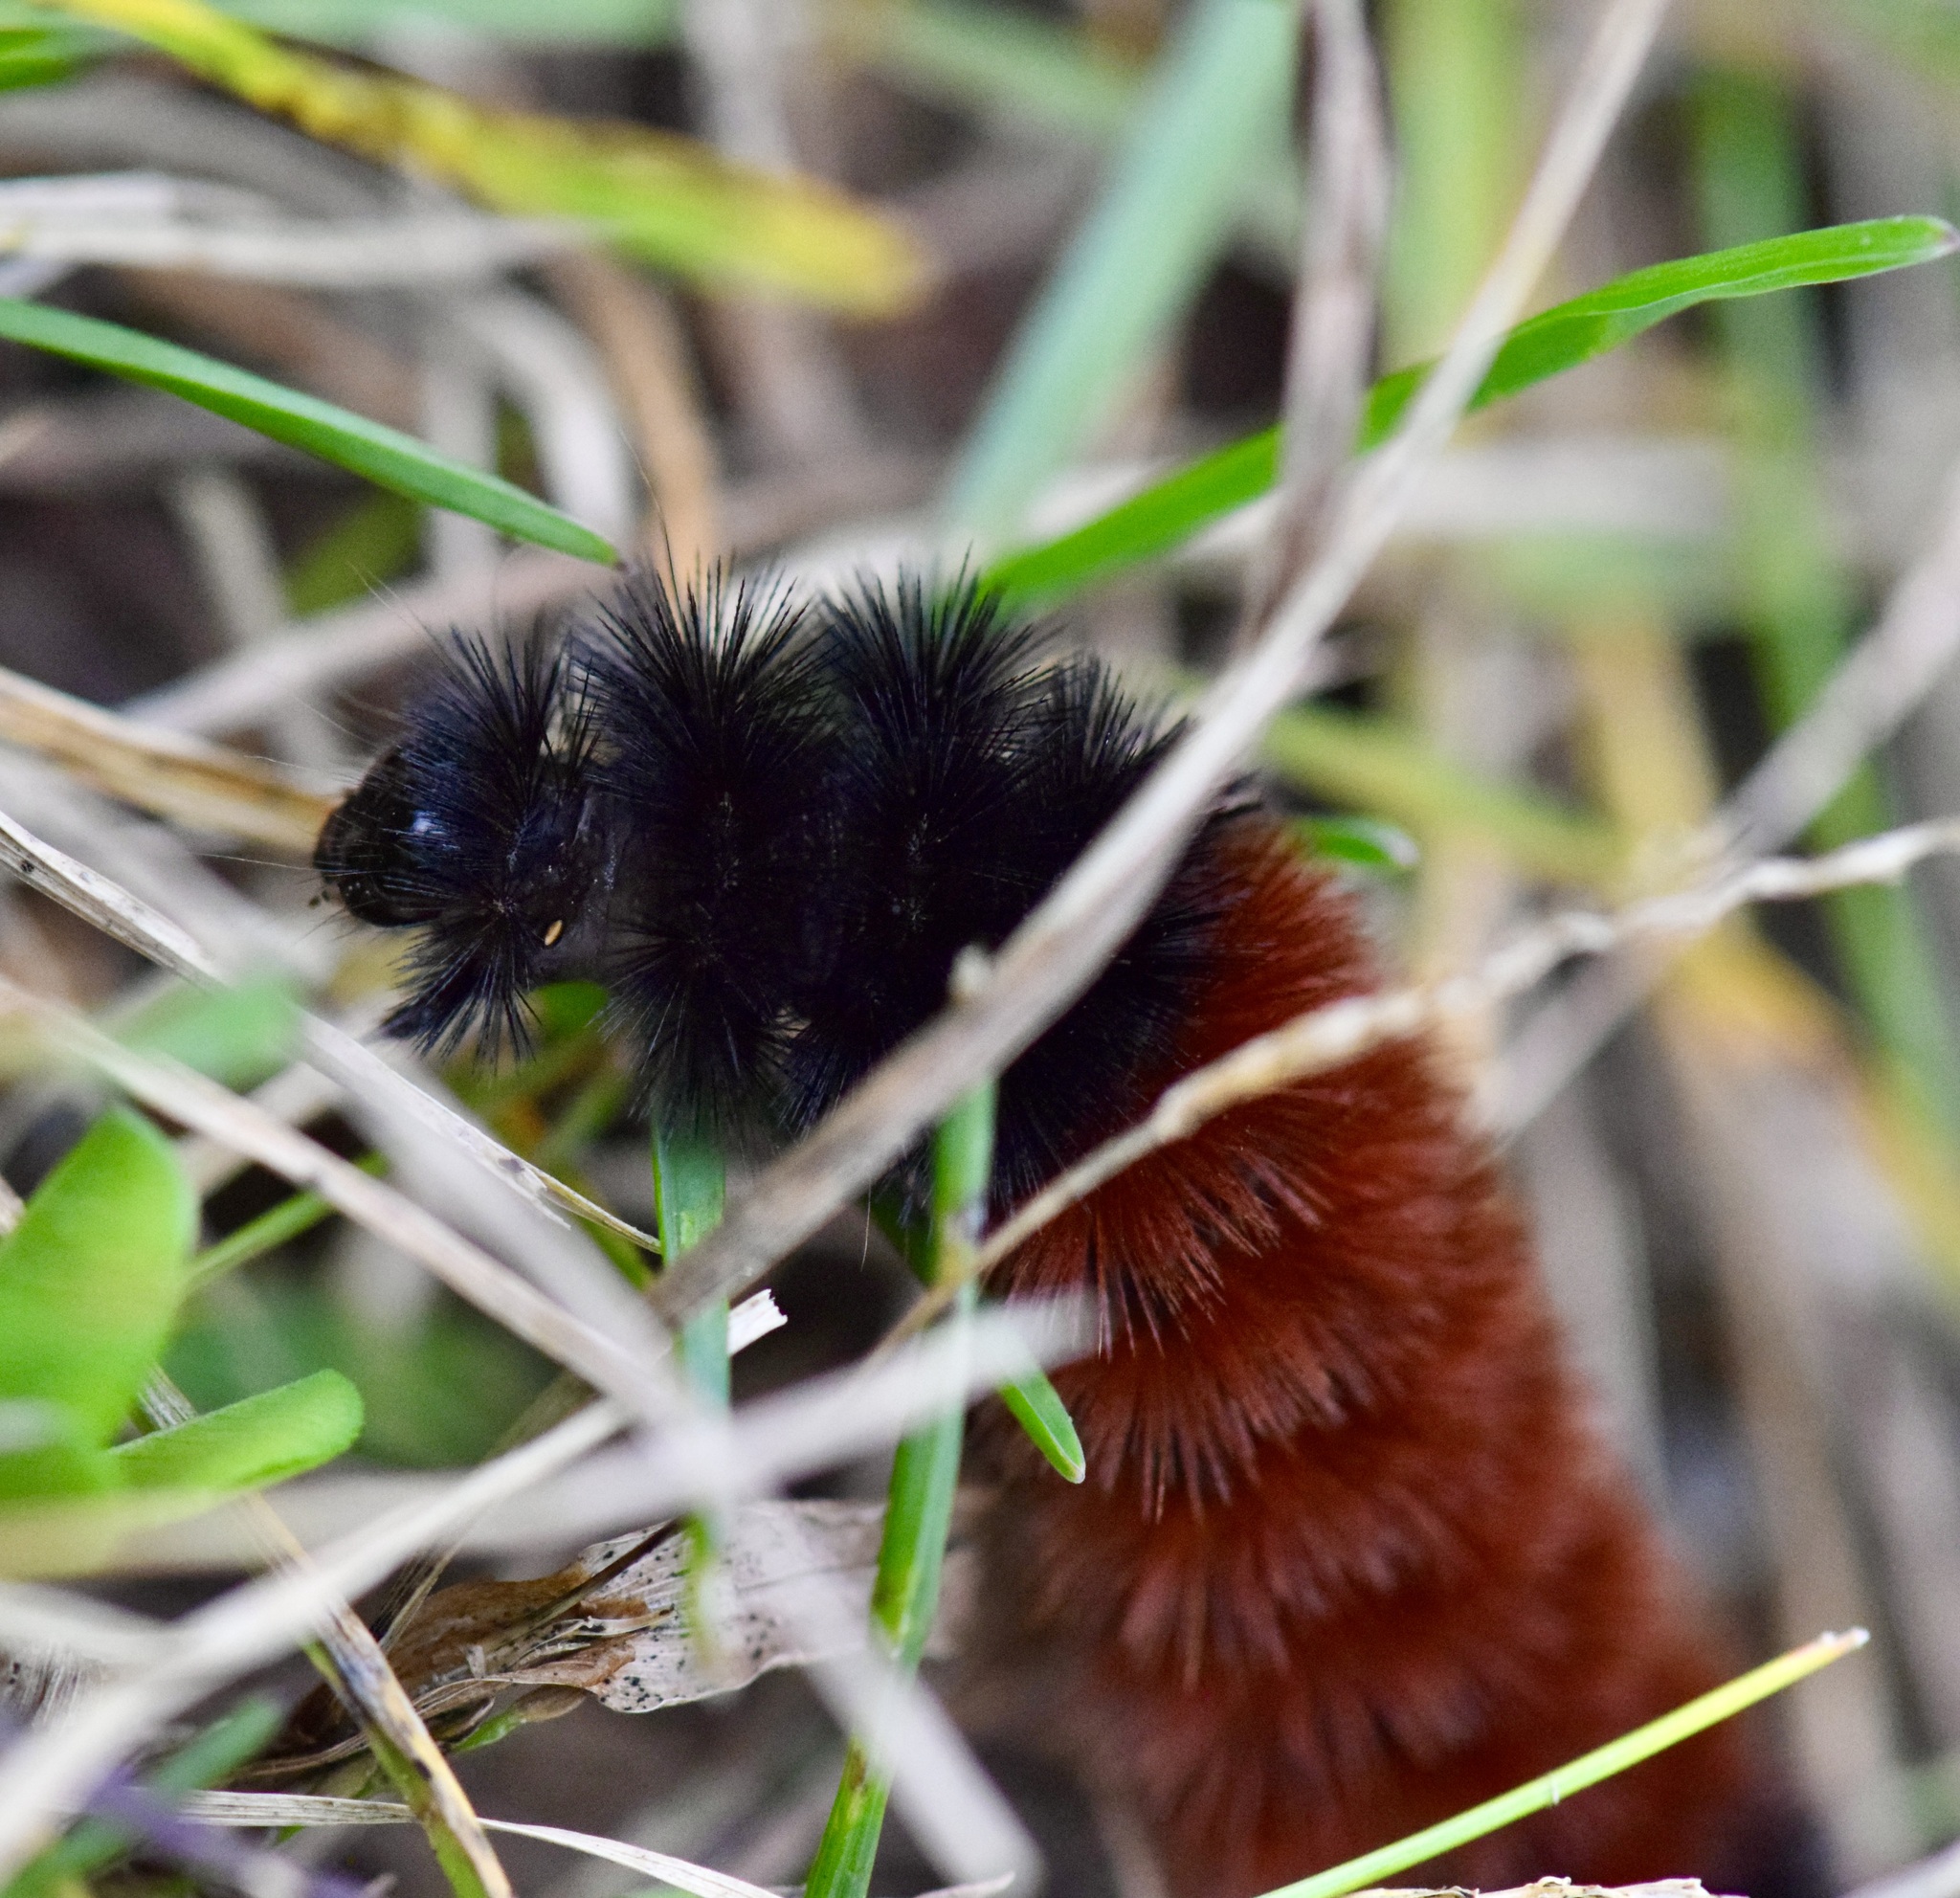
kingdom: Animalia
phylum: Arthropoda
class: Insecta
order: Lepidoptera
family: Erebidae
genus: Pyrrharctia
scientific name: Pyrrharctia isabella
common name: Isabella tiger moth
